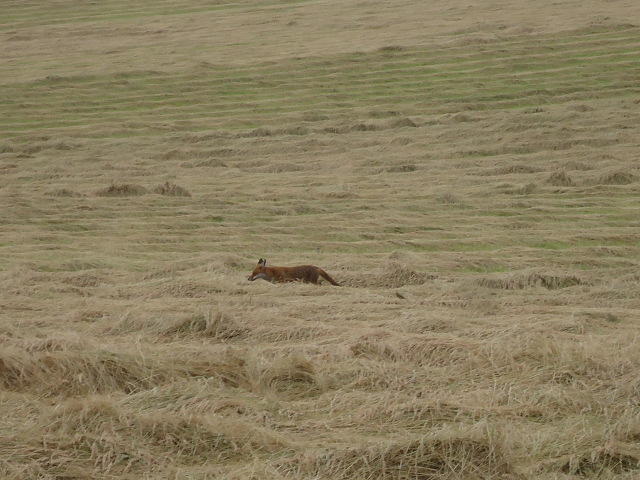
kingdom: Animalia
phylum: Chordata
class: Mammalia
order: Carnivora
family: Canidae
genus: Vulpes
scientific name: Vulpes vulpes
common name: Red fox
